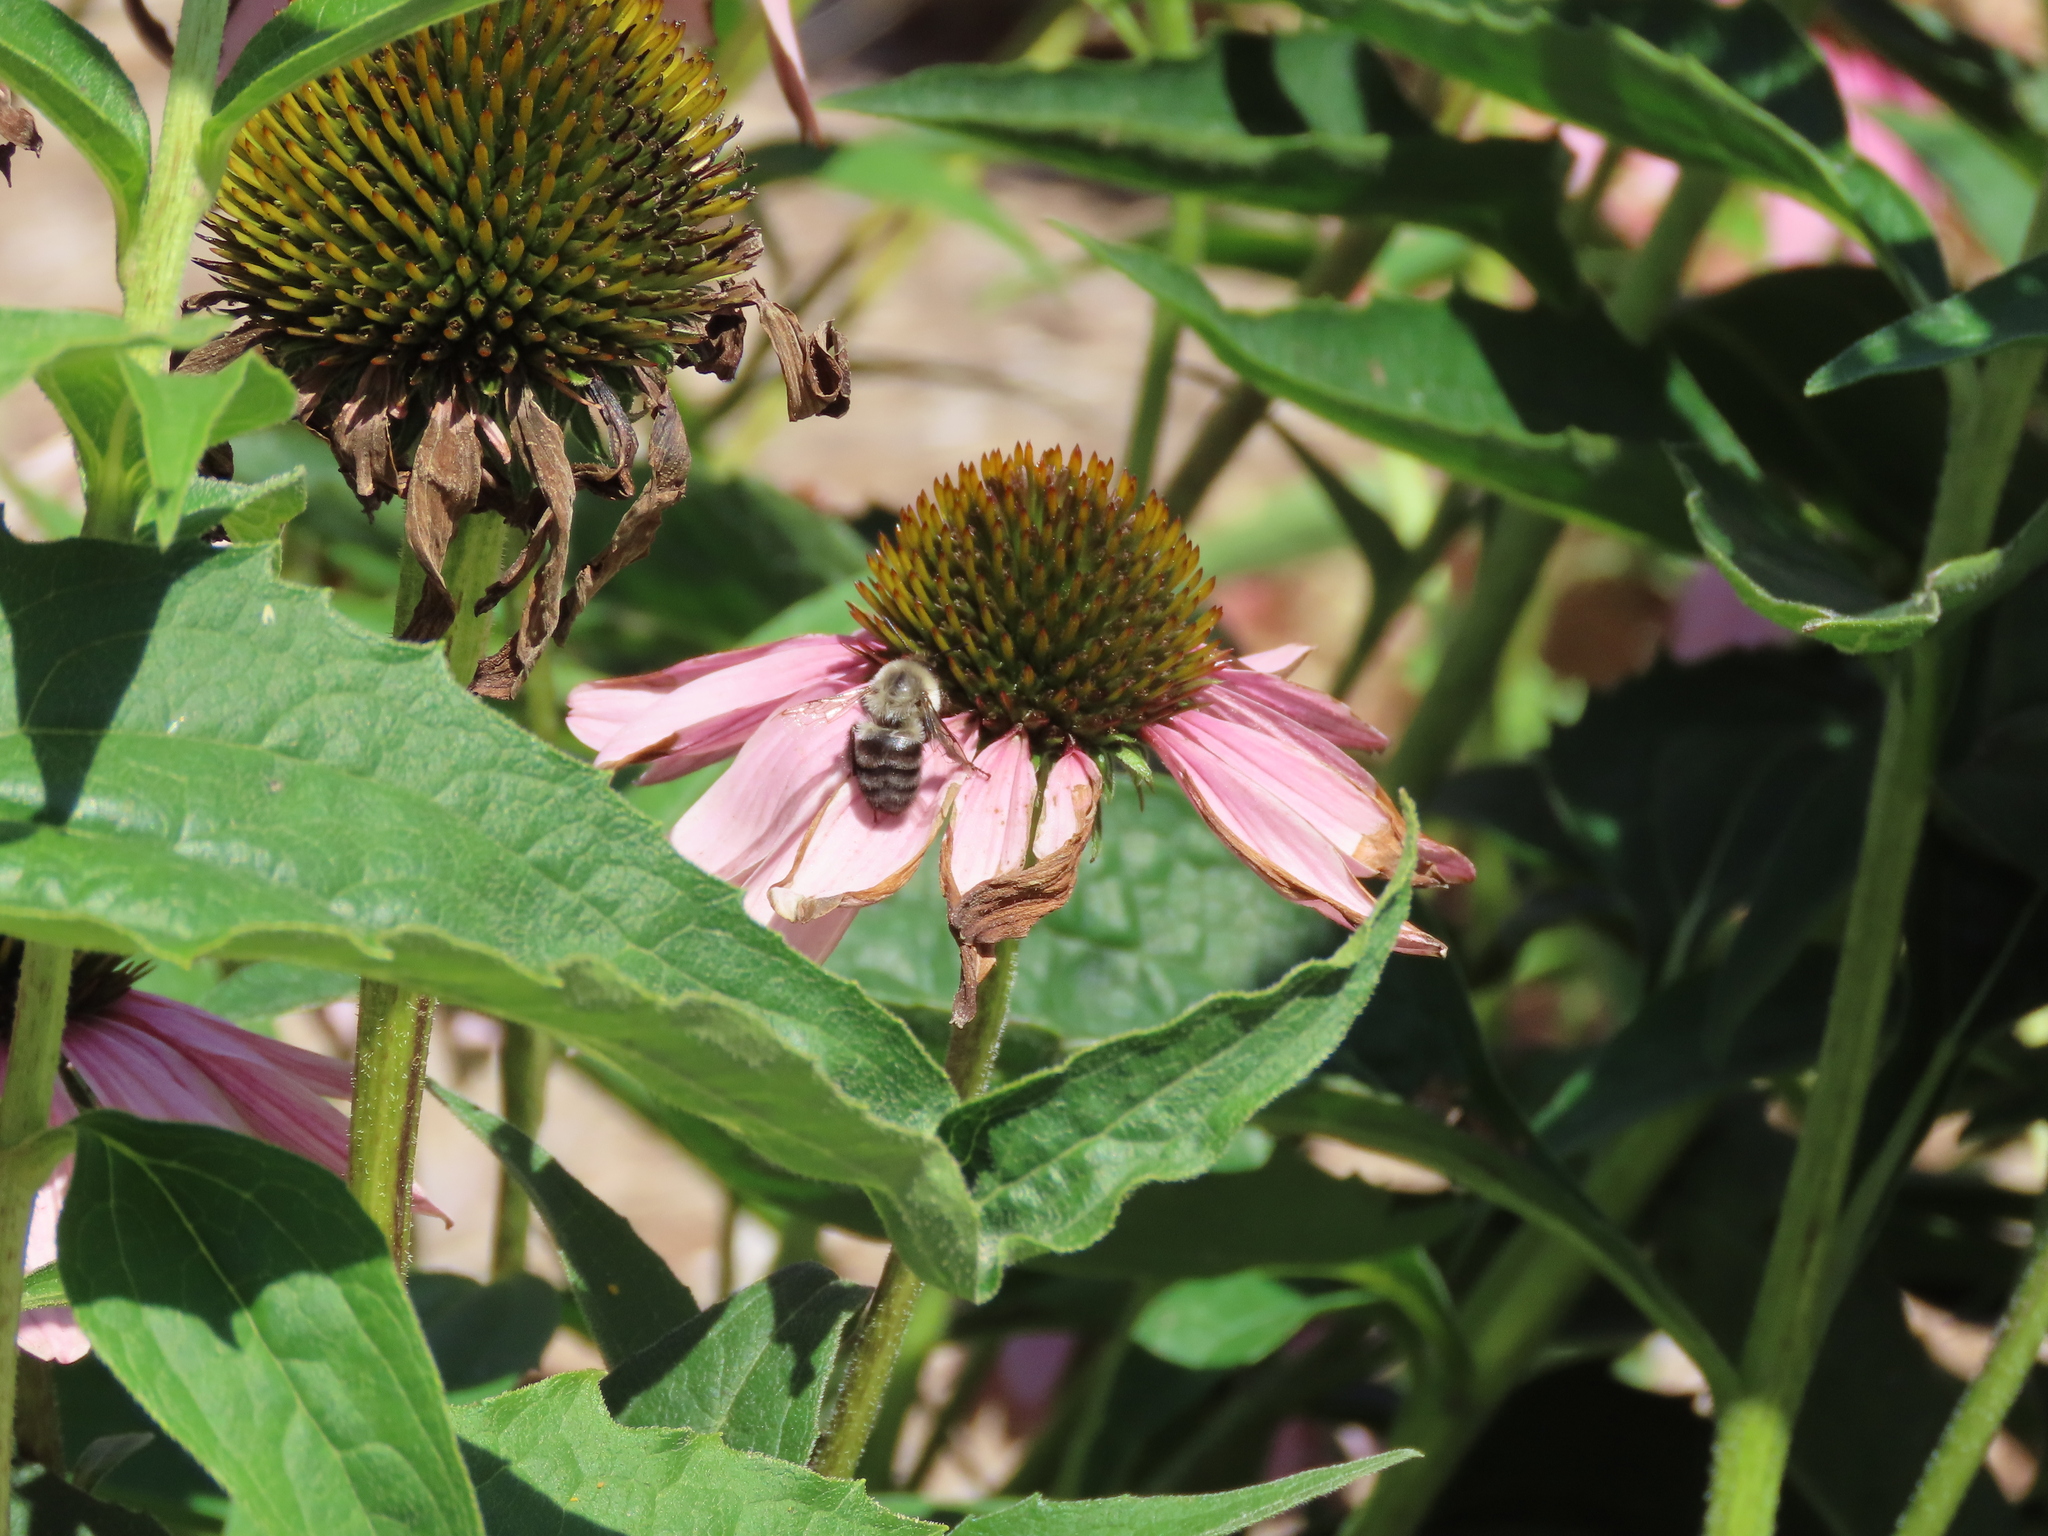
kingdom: Animalia
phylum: Arthropoda
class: Insecta
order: Hymenoptera
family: Apidae
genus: Bombus
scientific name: Bombus impatiens
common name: Common eastern bumble bee
